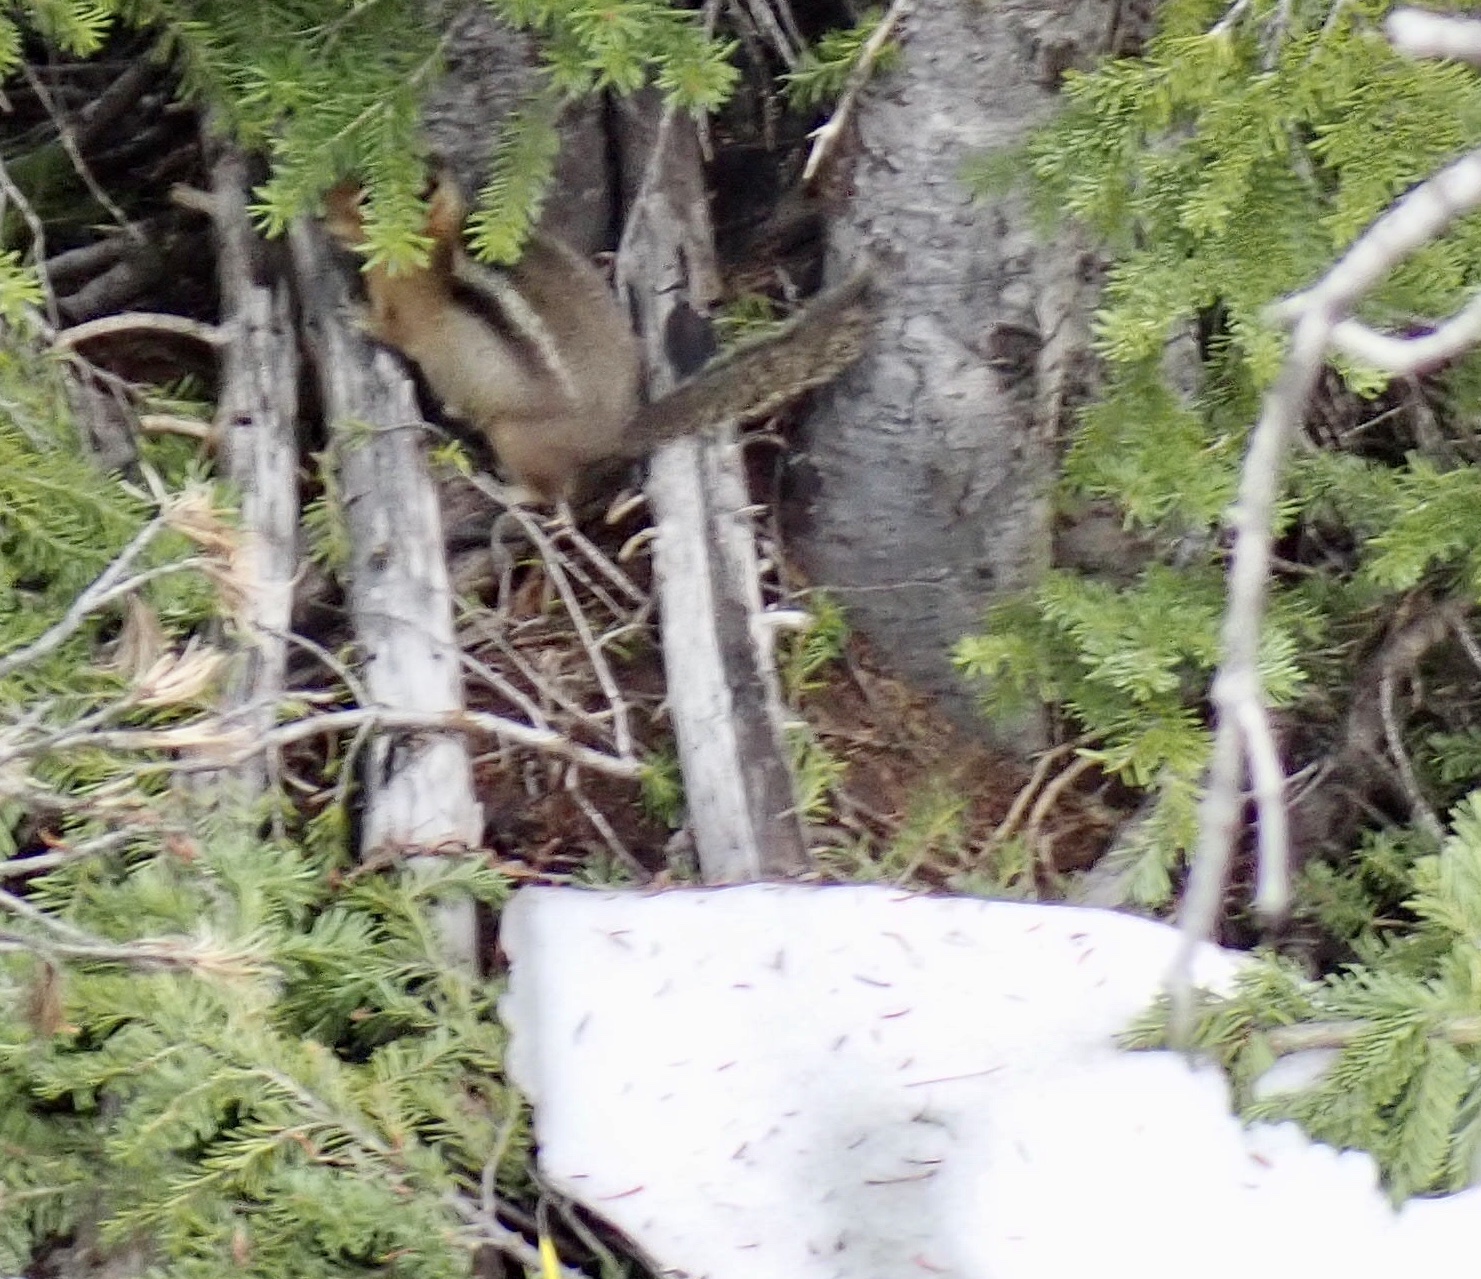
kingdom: Animalia
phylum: Chordata
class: Mammalia
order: Rodentia
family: Sciuridae
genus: Callospermophilus
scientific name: Callospermophilus saturatus
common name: Cascade golden-mantled ground squirrel
